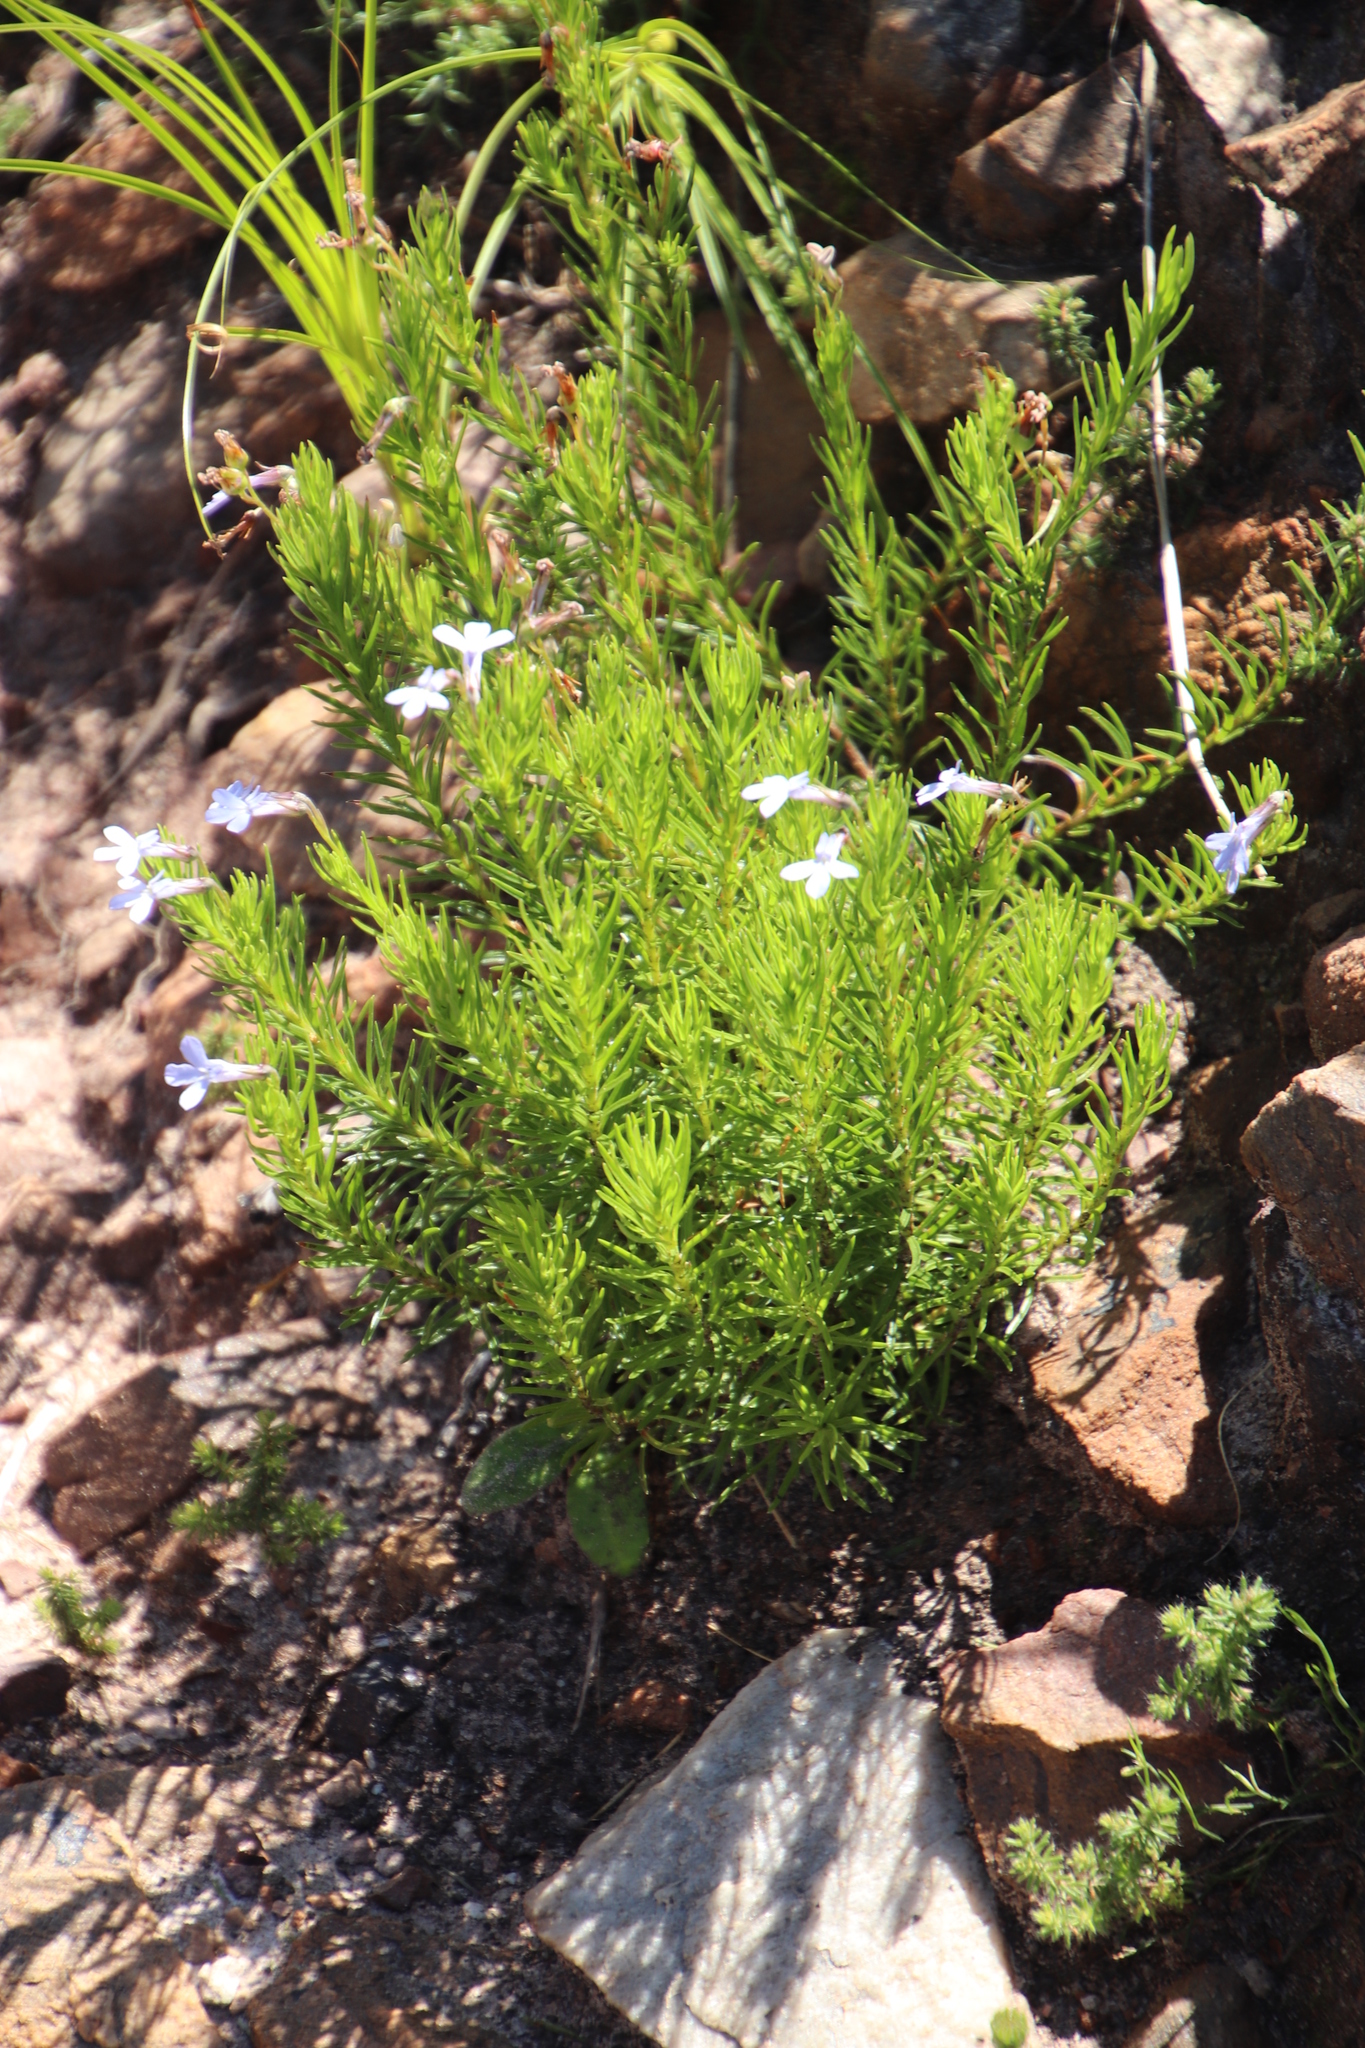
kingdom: Plantae
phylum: Tracheophyta
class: Magnoliopsida
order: Asterales
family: Campanulaceae
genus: Lobelia
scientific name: Lobelia pinifolia
